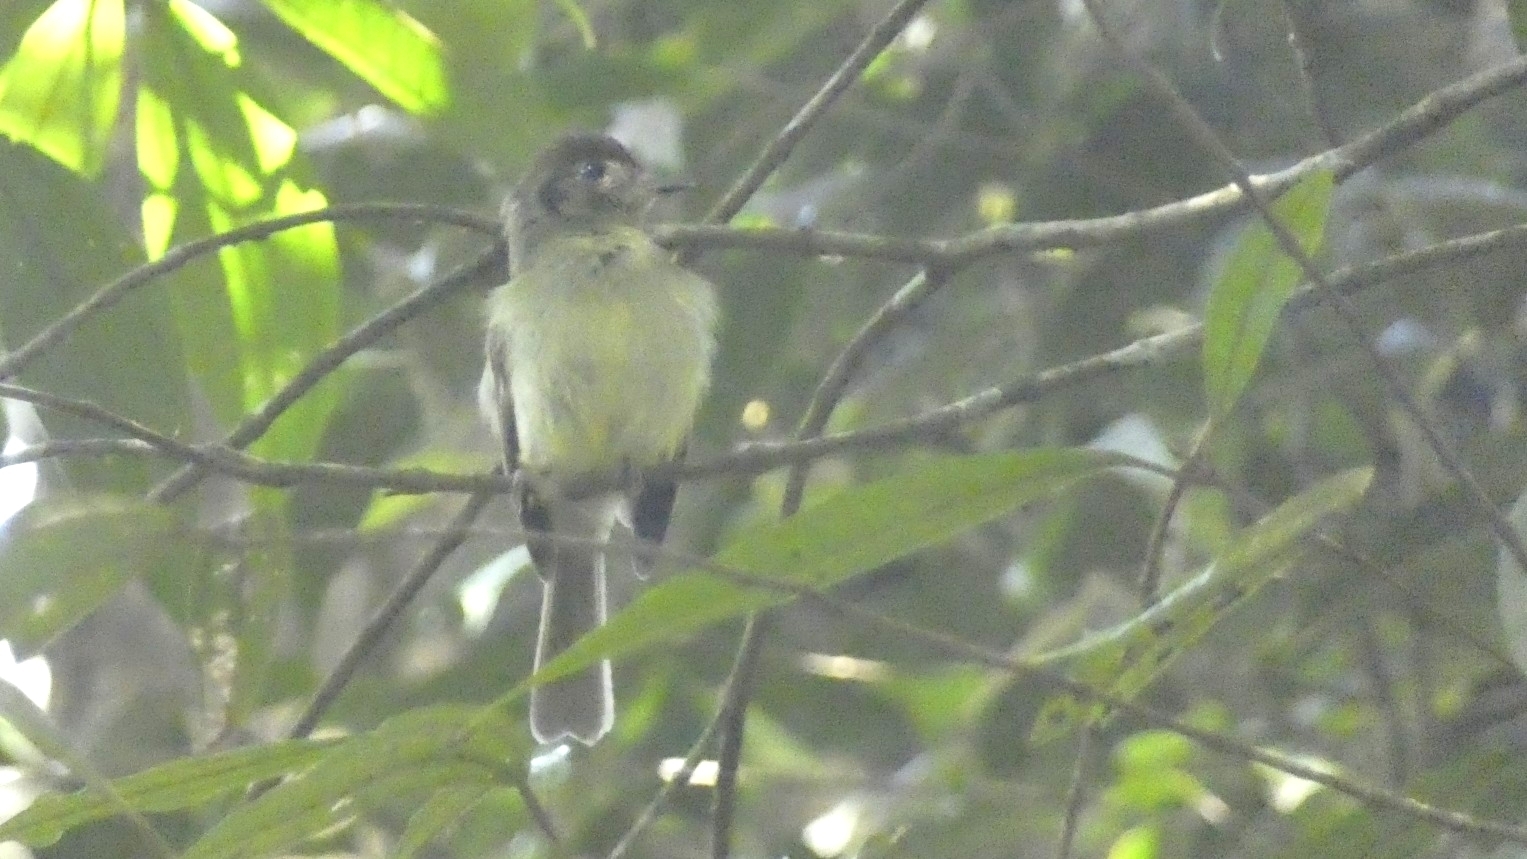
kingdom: Animalia
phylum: Chordata
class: Aves
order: Passeriformes
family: Tyrannidae
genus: Leptopogon
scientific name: Leptopogon amaurocephalus
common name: Sepia-capped flycatcher
